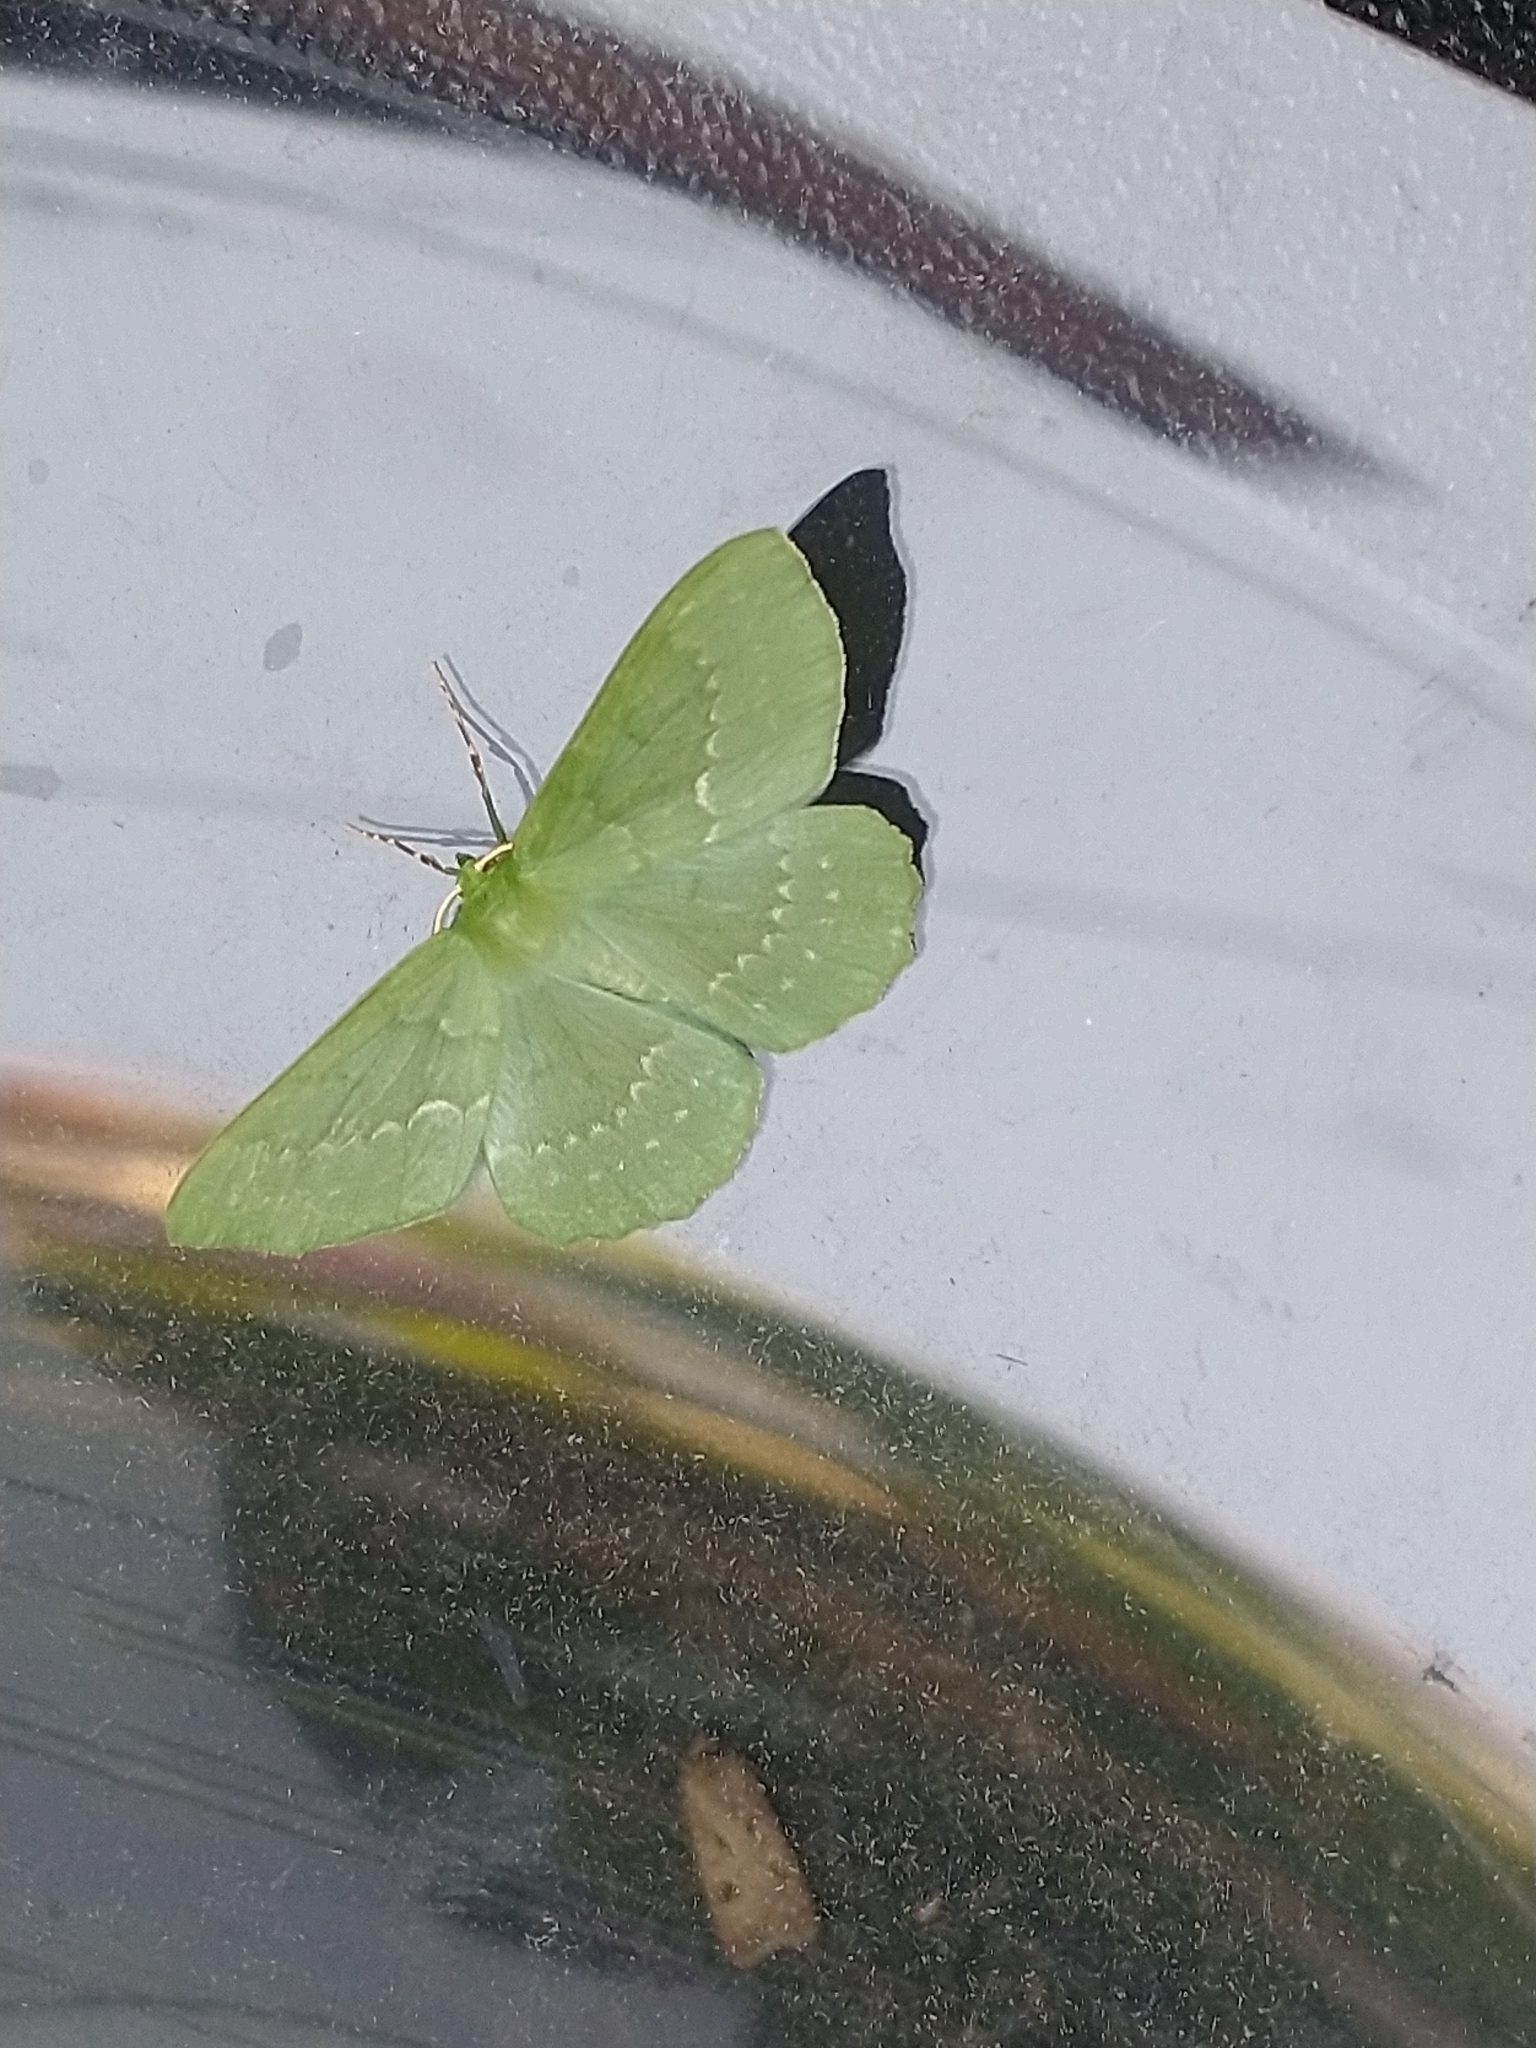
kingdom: Animalia
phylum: Arthropoda
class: Insecta
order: Lepidoptera
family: Geometridae
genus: Geometra
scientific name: Geometra papilionaria
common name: Large emerald
